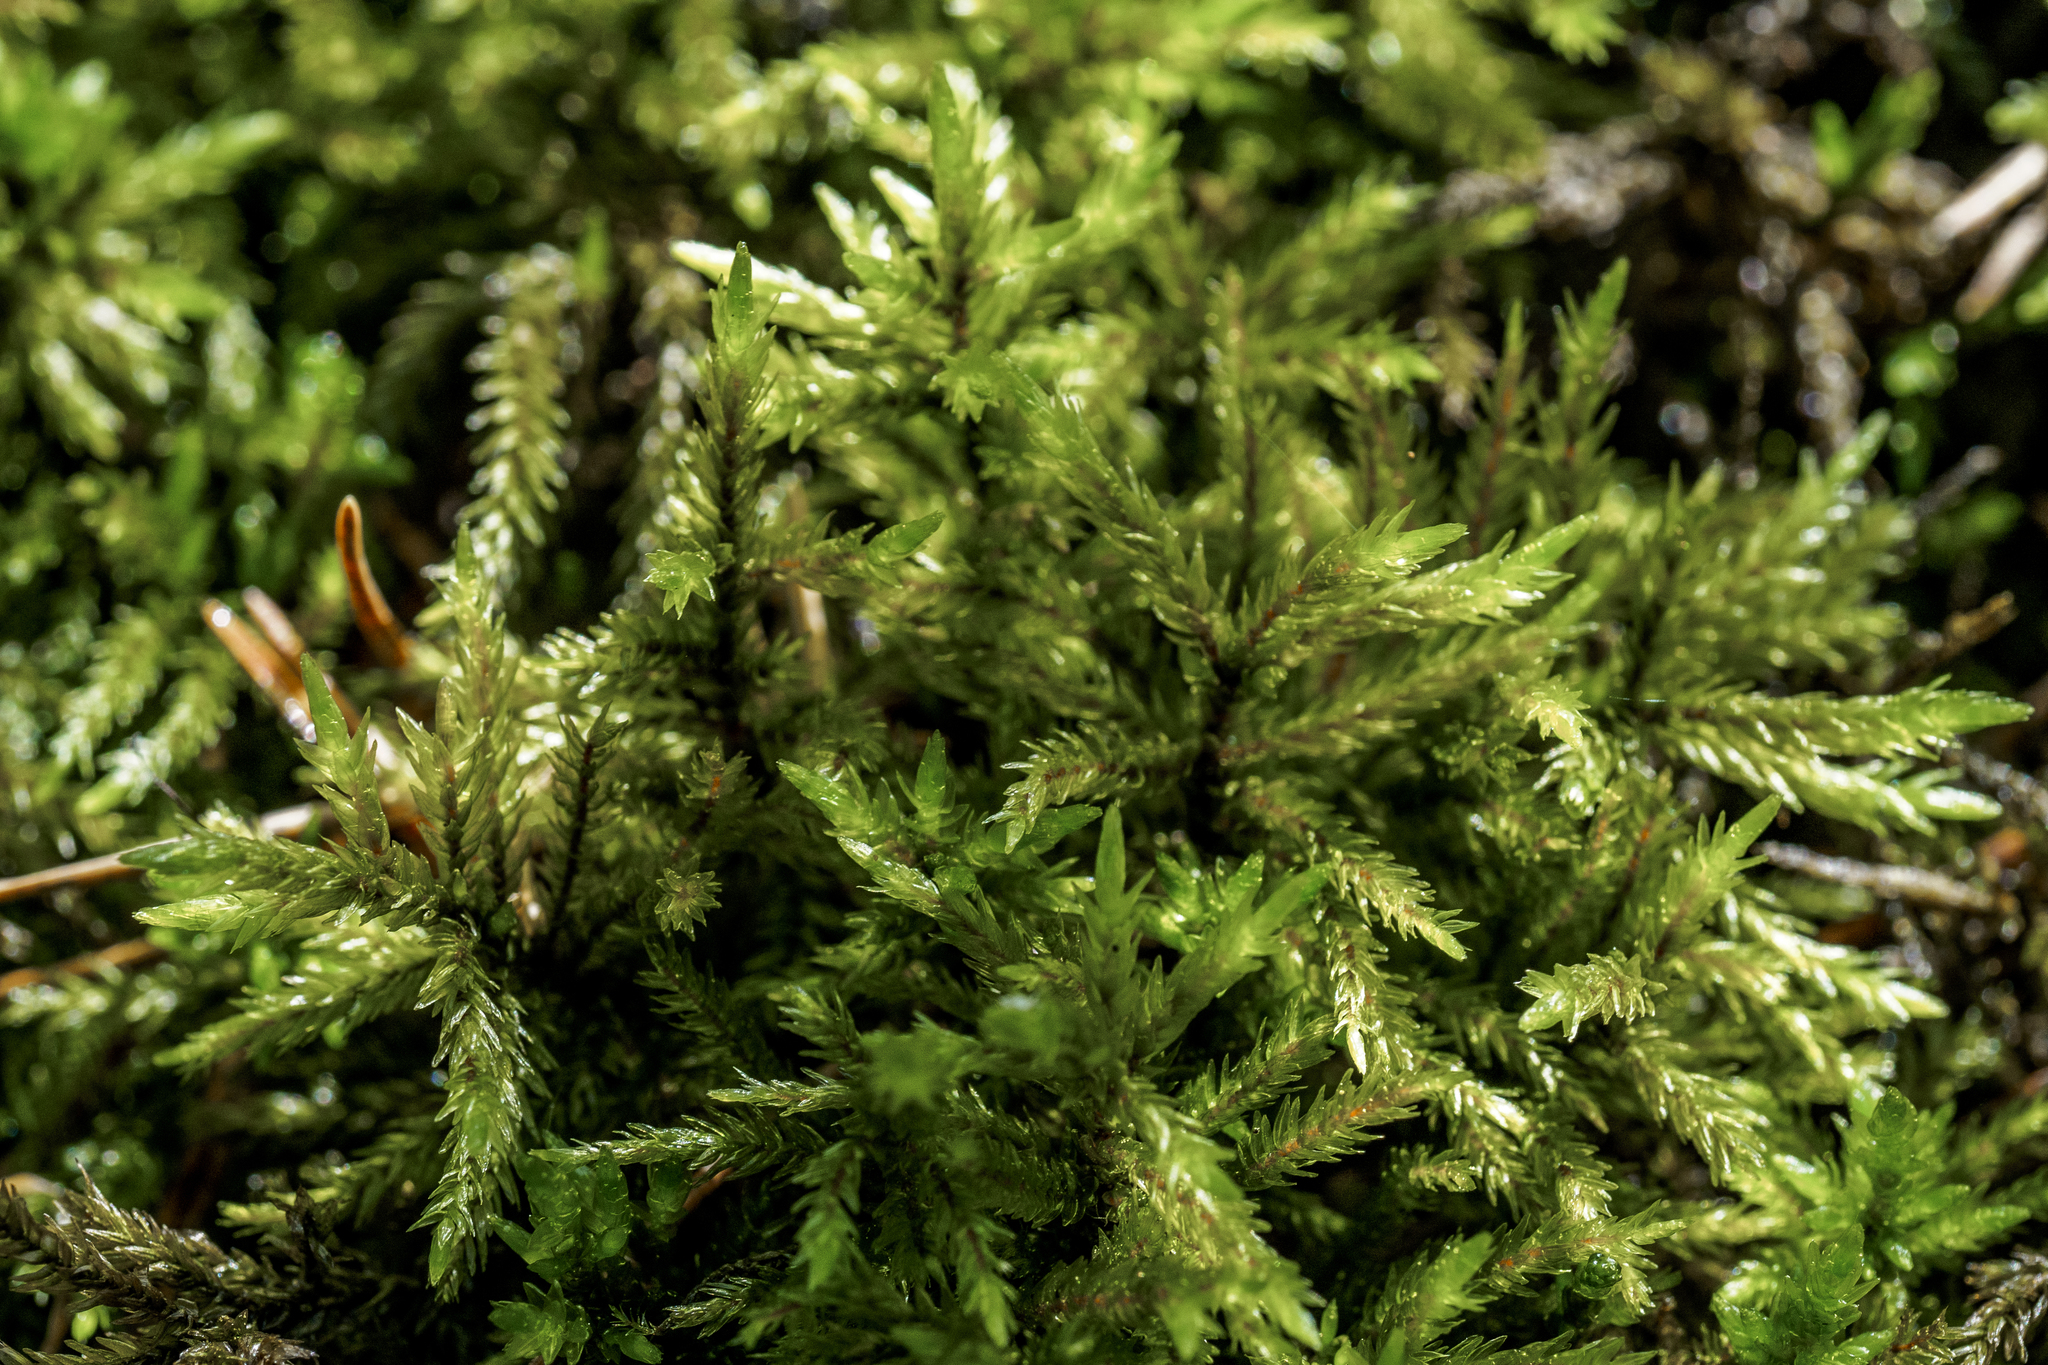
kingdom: Plantae
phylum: Bryophyta
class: Bryopsida
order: Hypnales
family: Climaciaceae
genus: Climacium
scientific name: Climacium dendroides
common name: Northern tree moss
